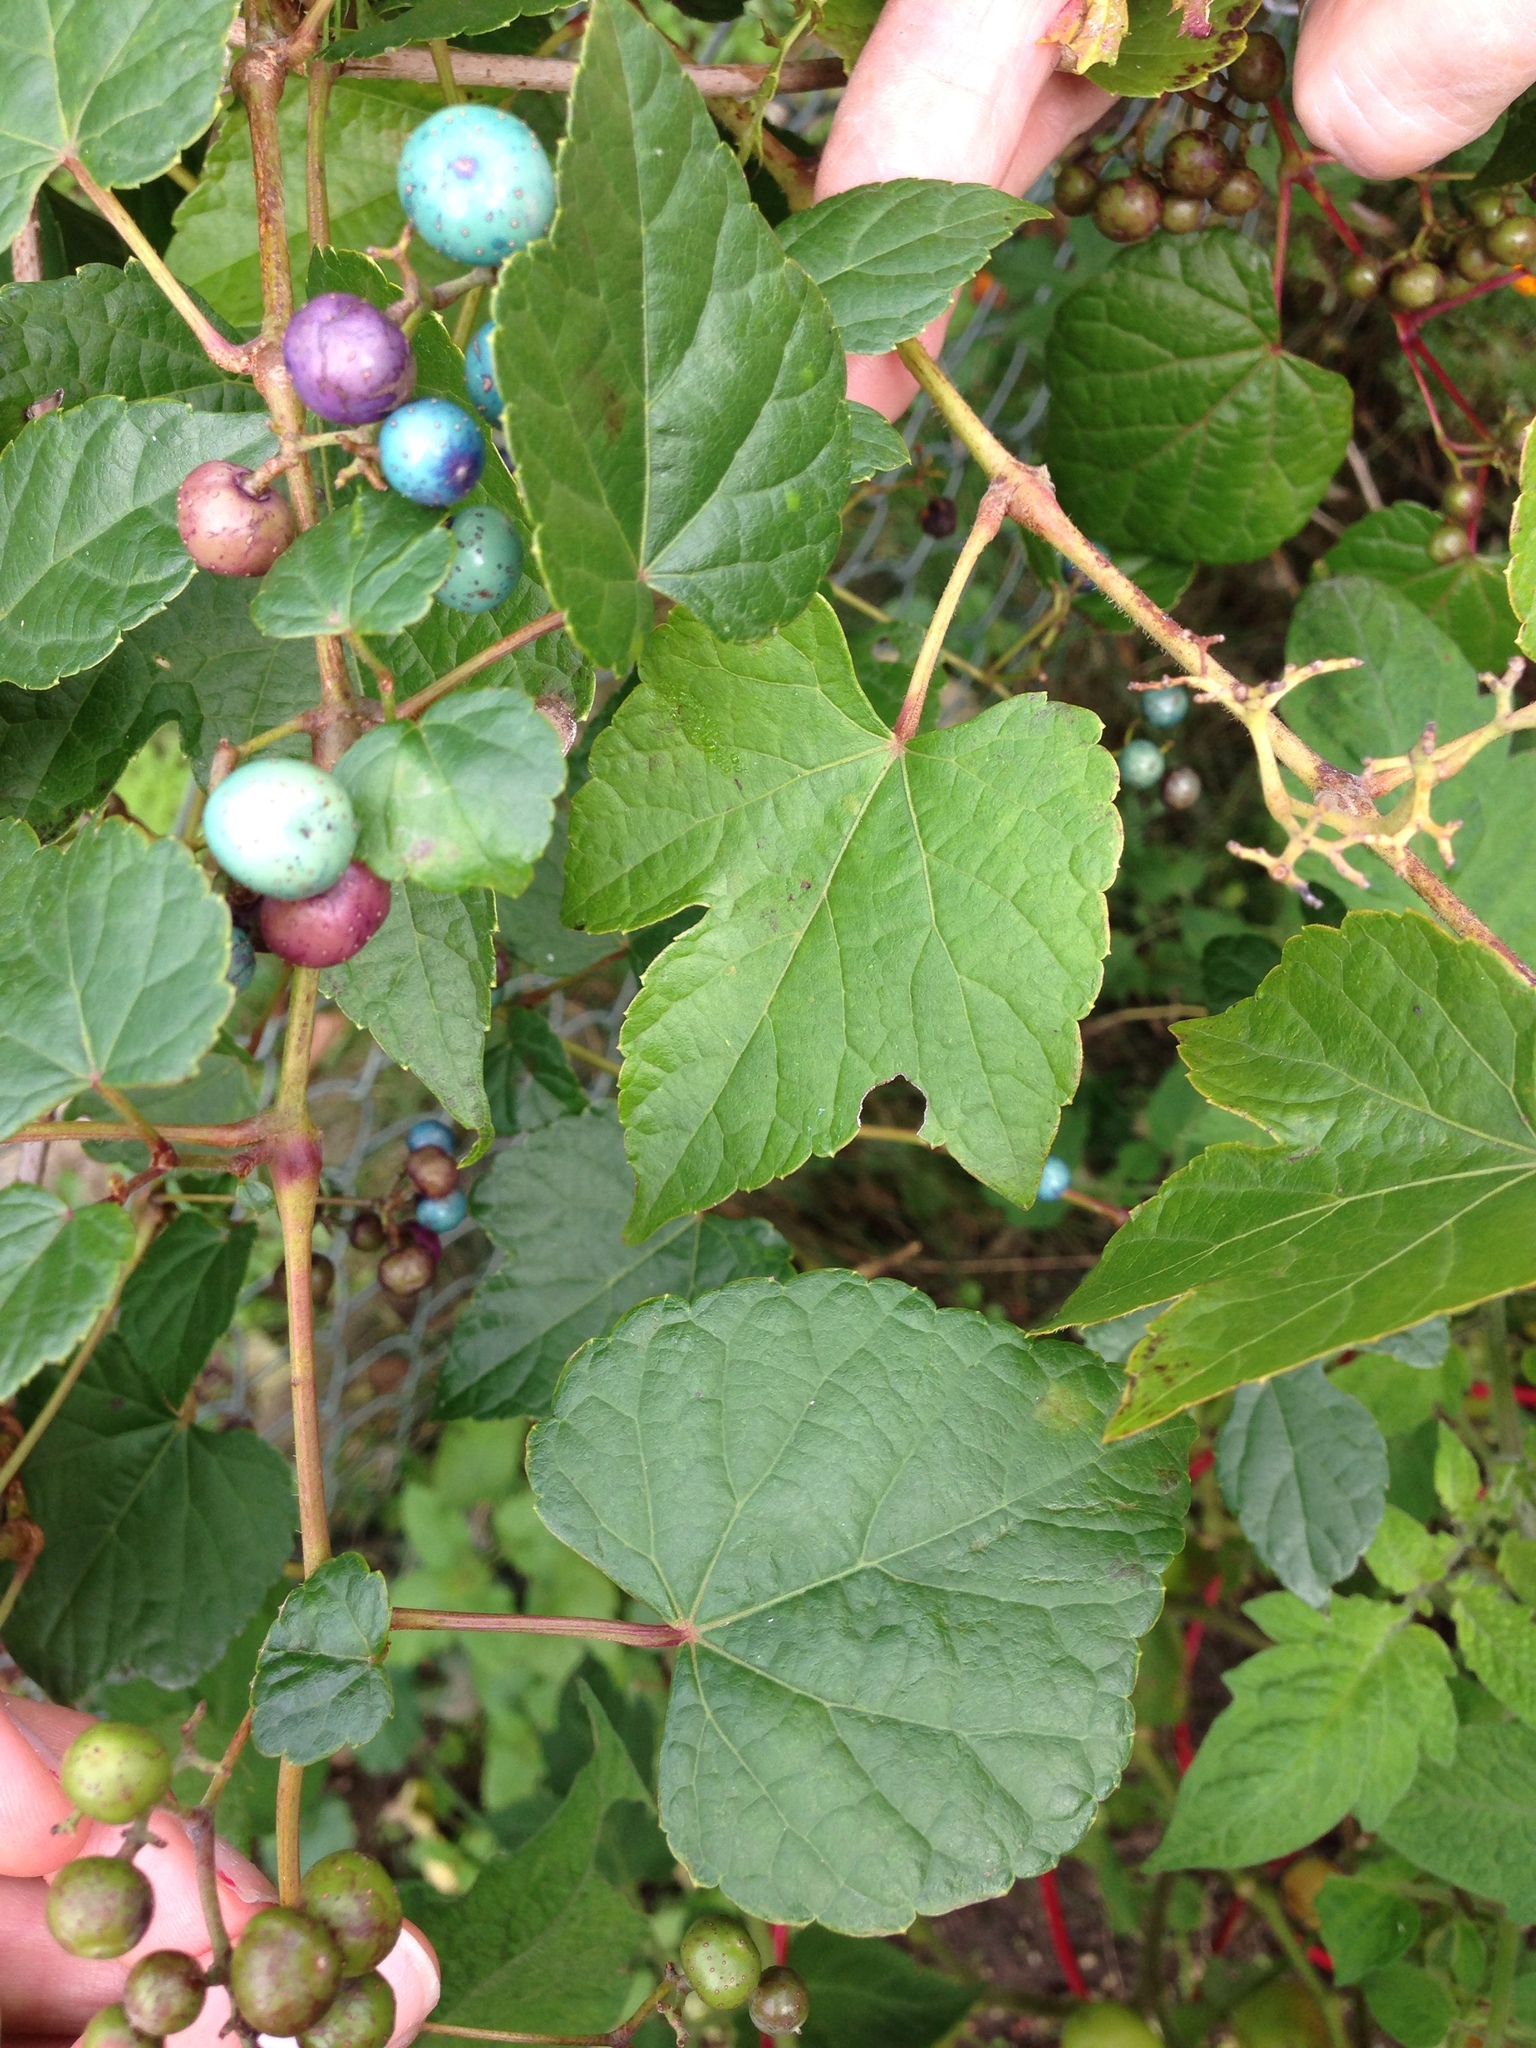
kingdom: Plantae
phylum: Tracheophyta
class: Magnoliopsida
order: Vitales
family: Vitaceae
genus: Ampelopsis
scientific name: Ampelopsis glandulosa
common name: Amur peppervine
